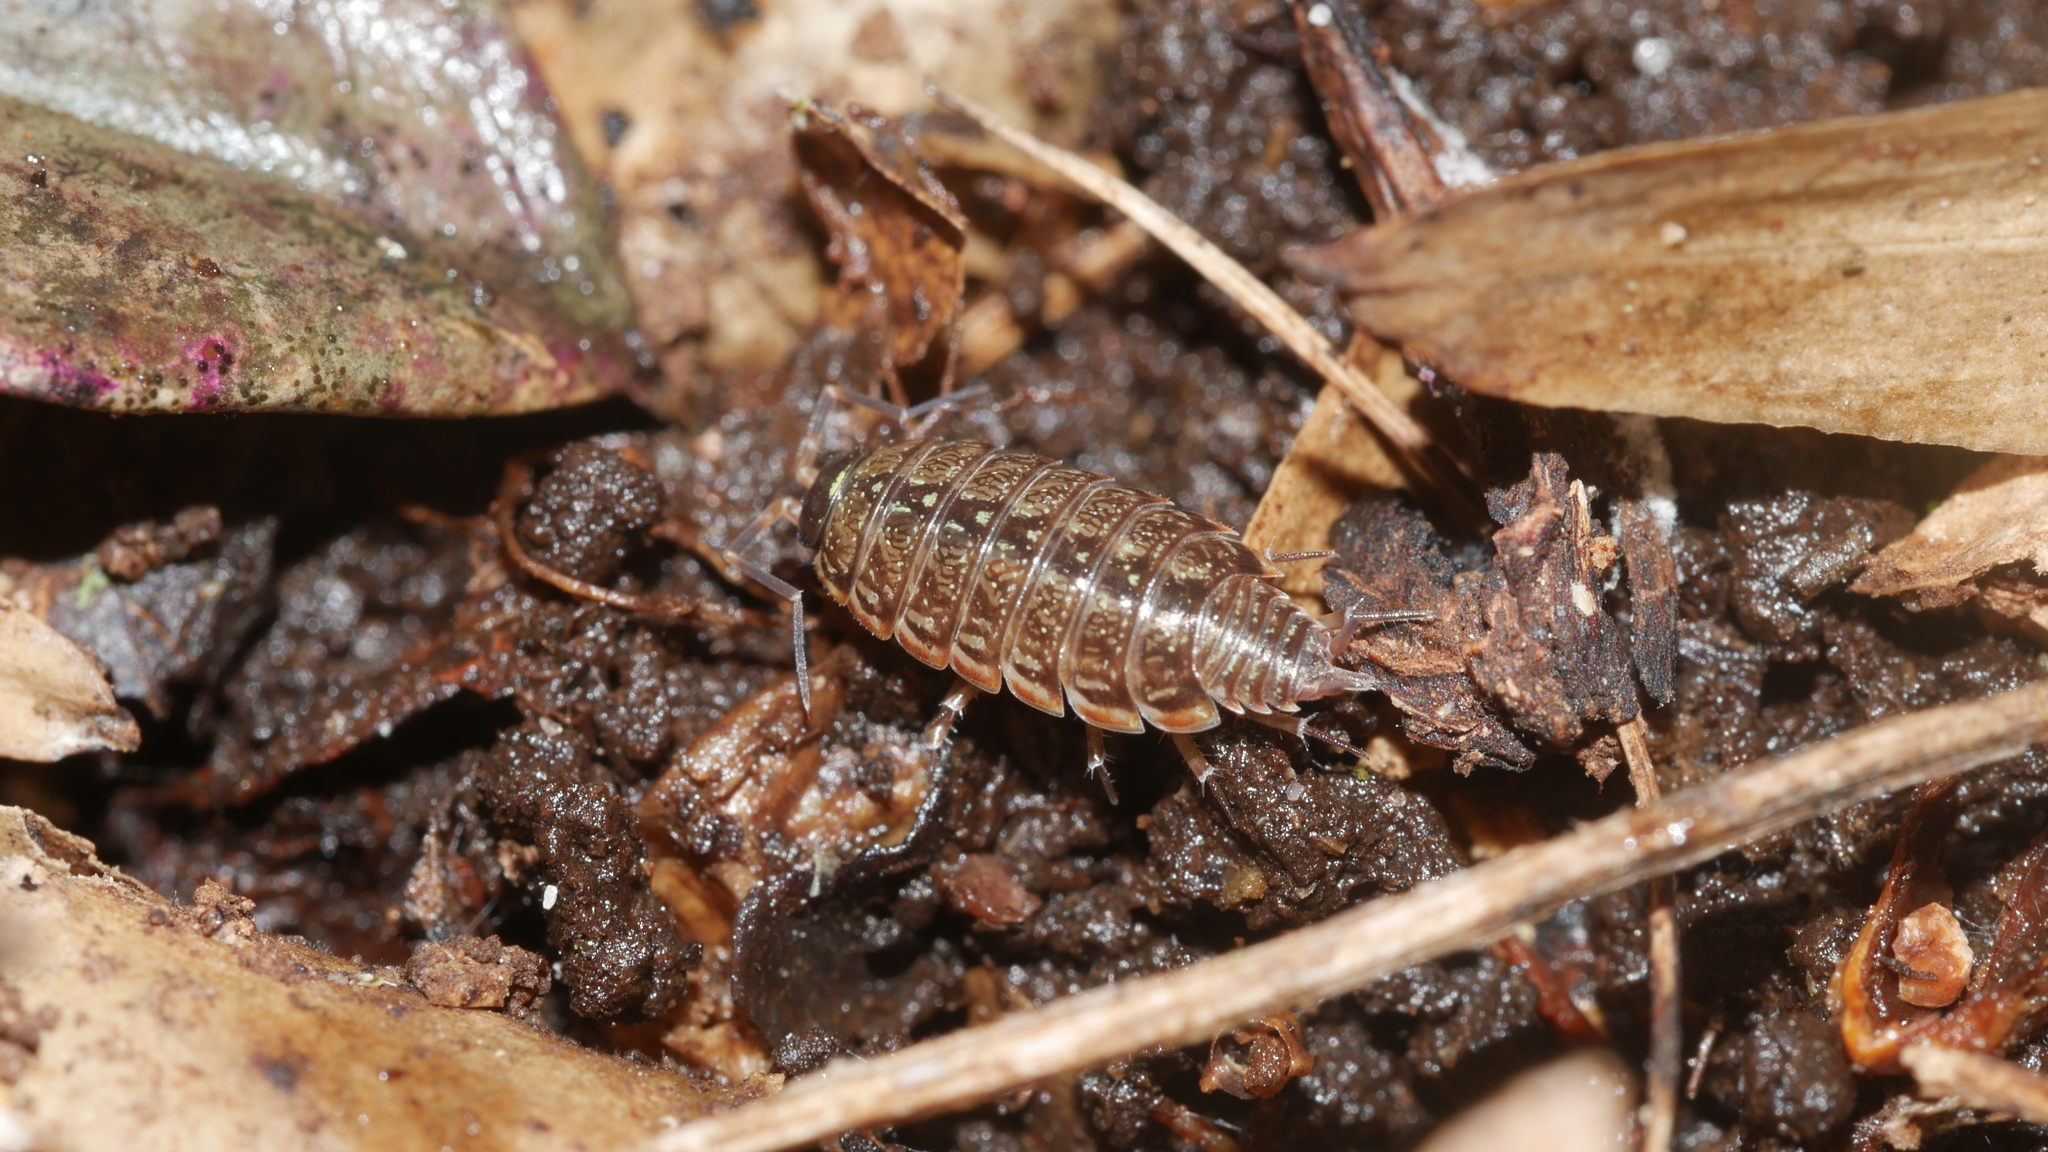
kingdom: Animalia
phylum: Arthropoda
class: Malacostraca
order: Isopoda
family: Philosciidae
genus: Philoscia
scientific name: Philoscia muscorum
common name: Common striped woodlouse
